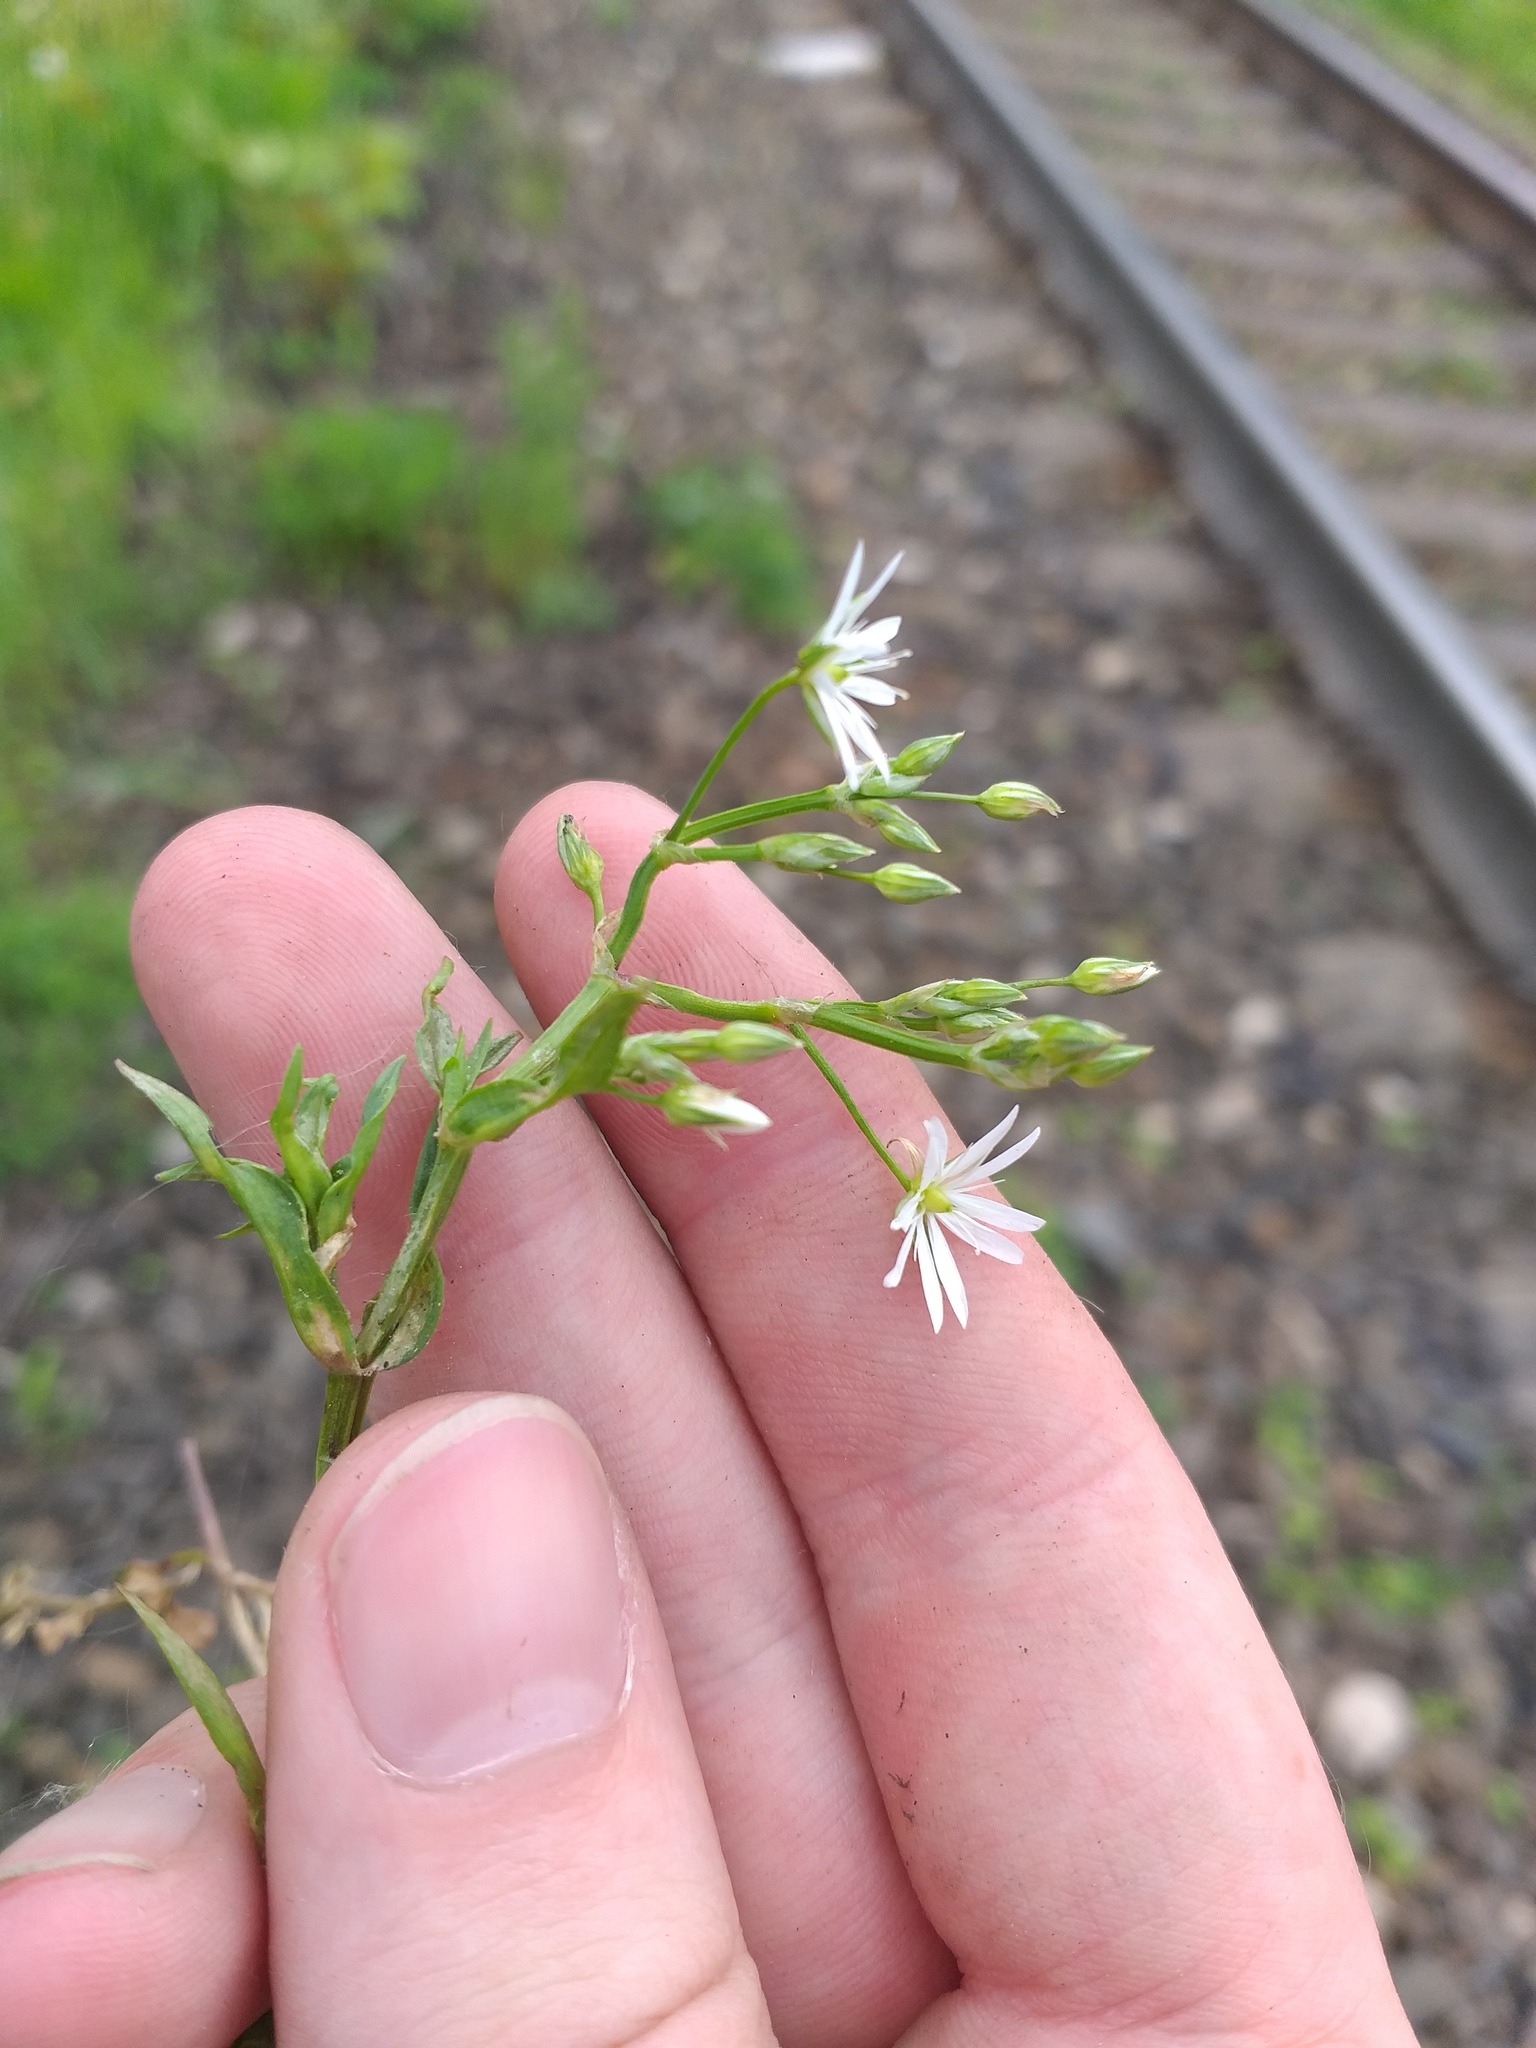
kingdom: Plantae
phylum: Tracheophyta
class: Magnoliopsida
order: Caryophyllales
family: Caryophyllaceae
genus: Stellaria
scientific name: Stellaria graminea
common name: Grass-like starwort
